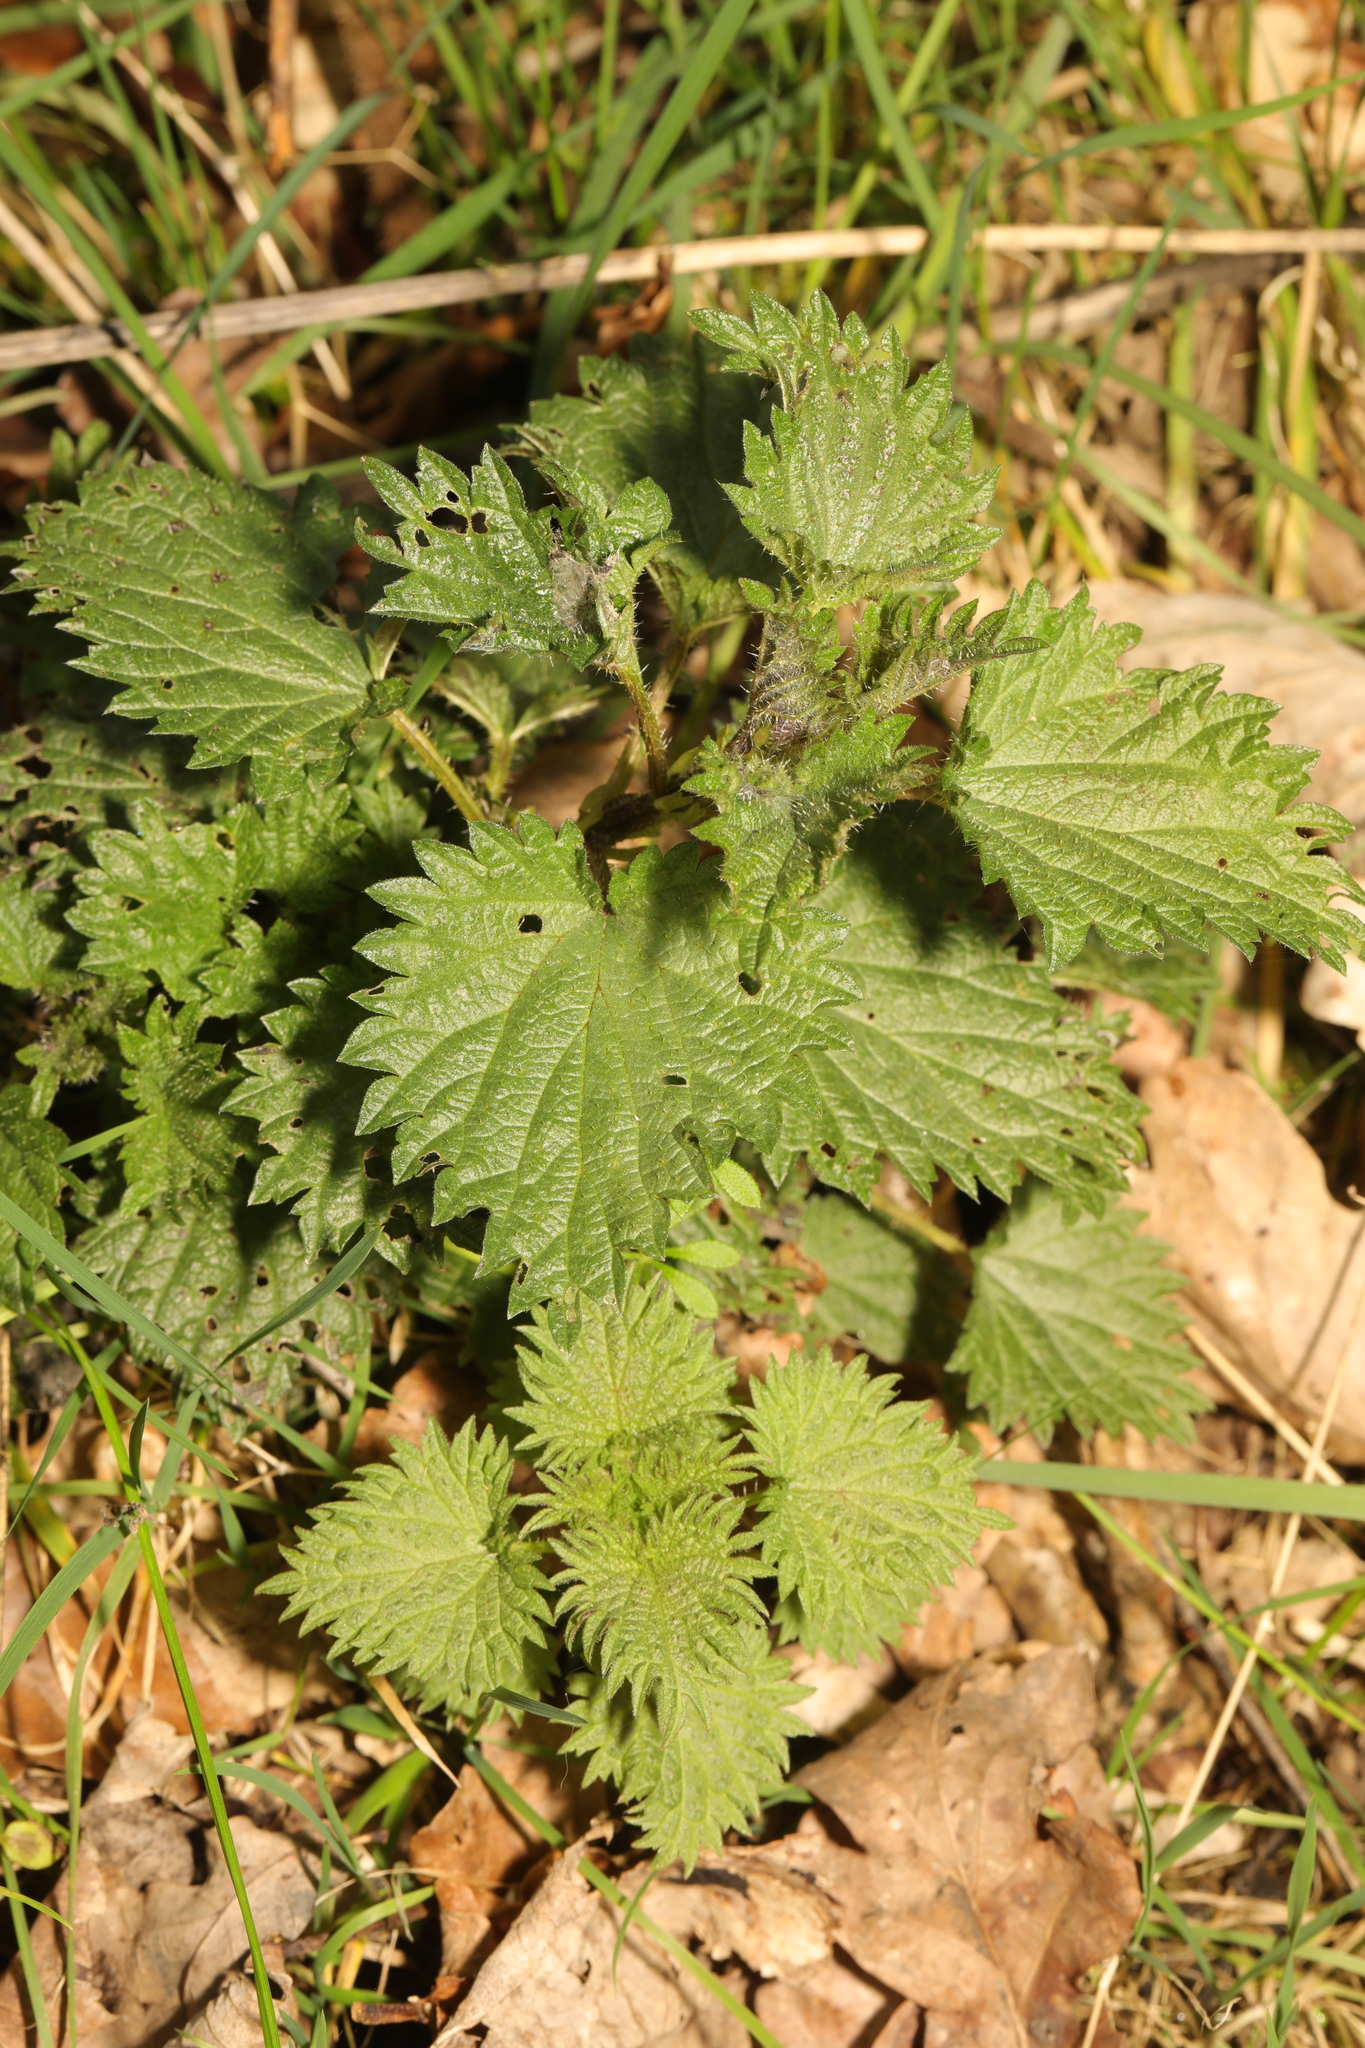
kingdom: Plantae
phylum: Tracheophyta
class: Magnoliopsida
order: Rosales
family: Urticaceae
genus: Urtica
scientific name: Urtica dioica
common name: Common nettle
